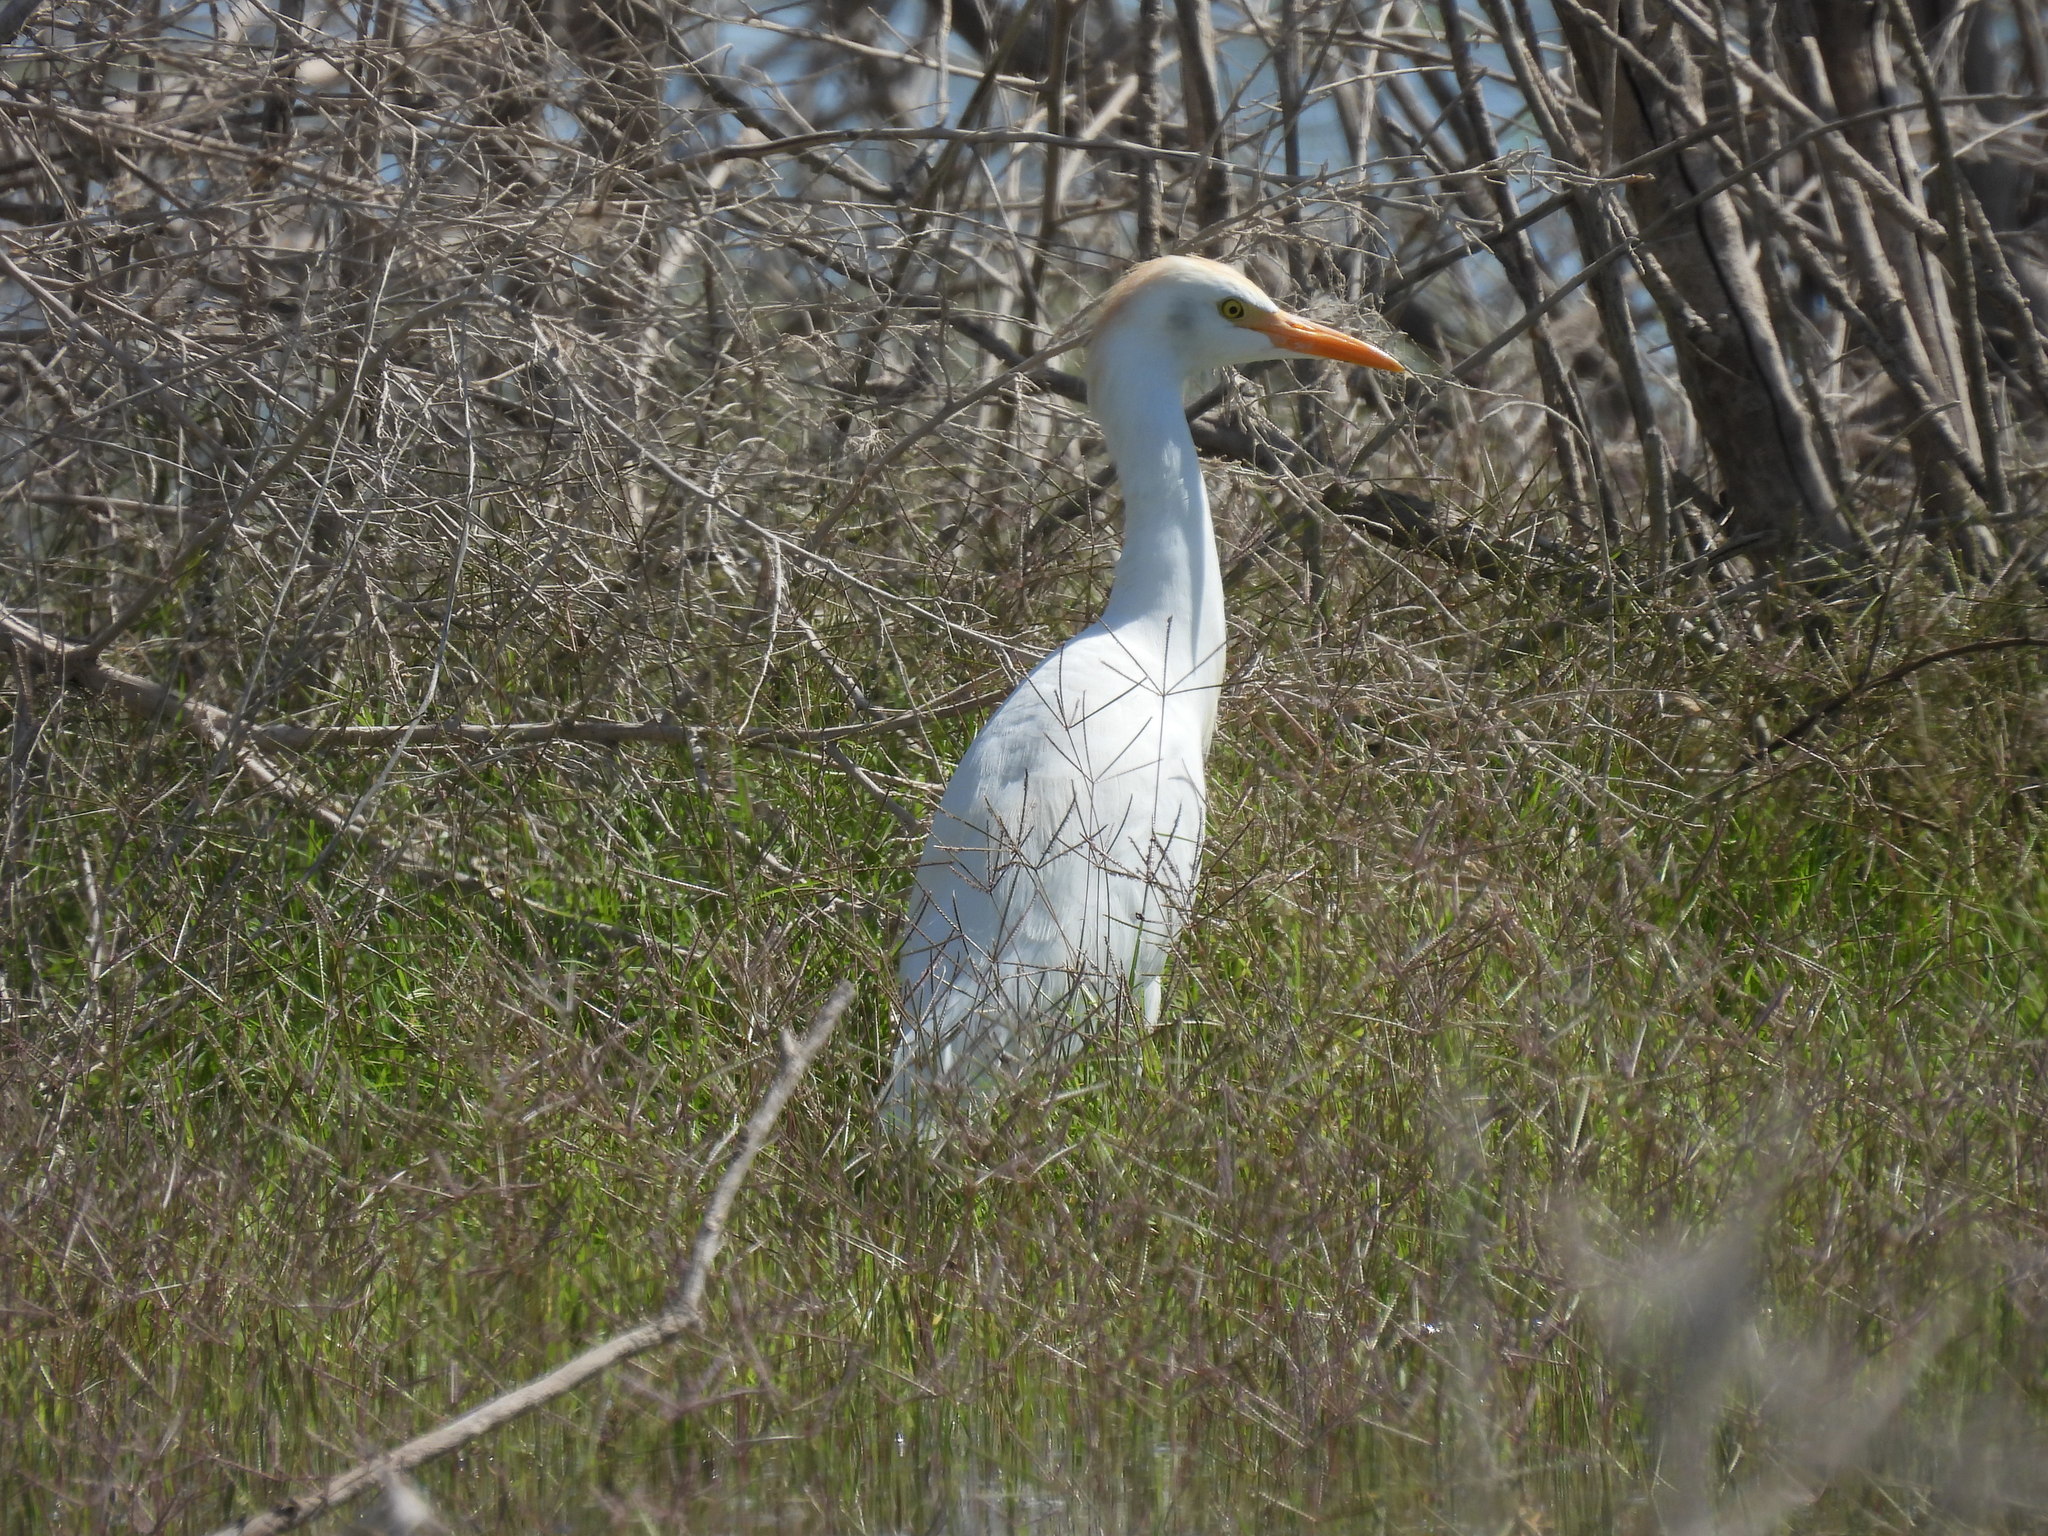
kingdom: Animalia
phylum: Chordata
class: Aves
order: Pelecaniformes
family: Ardeidae
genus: Bubulcus
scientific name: Bubulcus ibis
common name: Cattle egret
